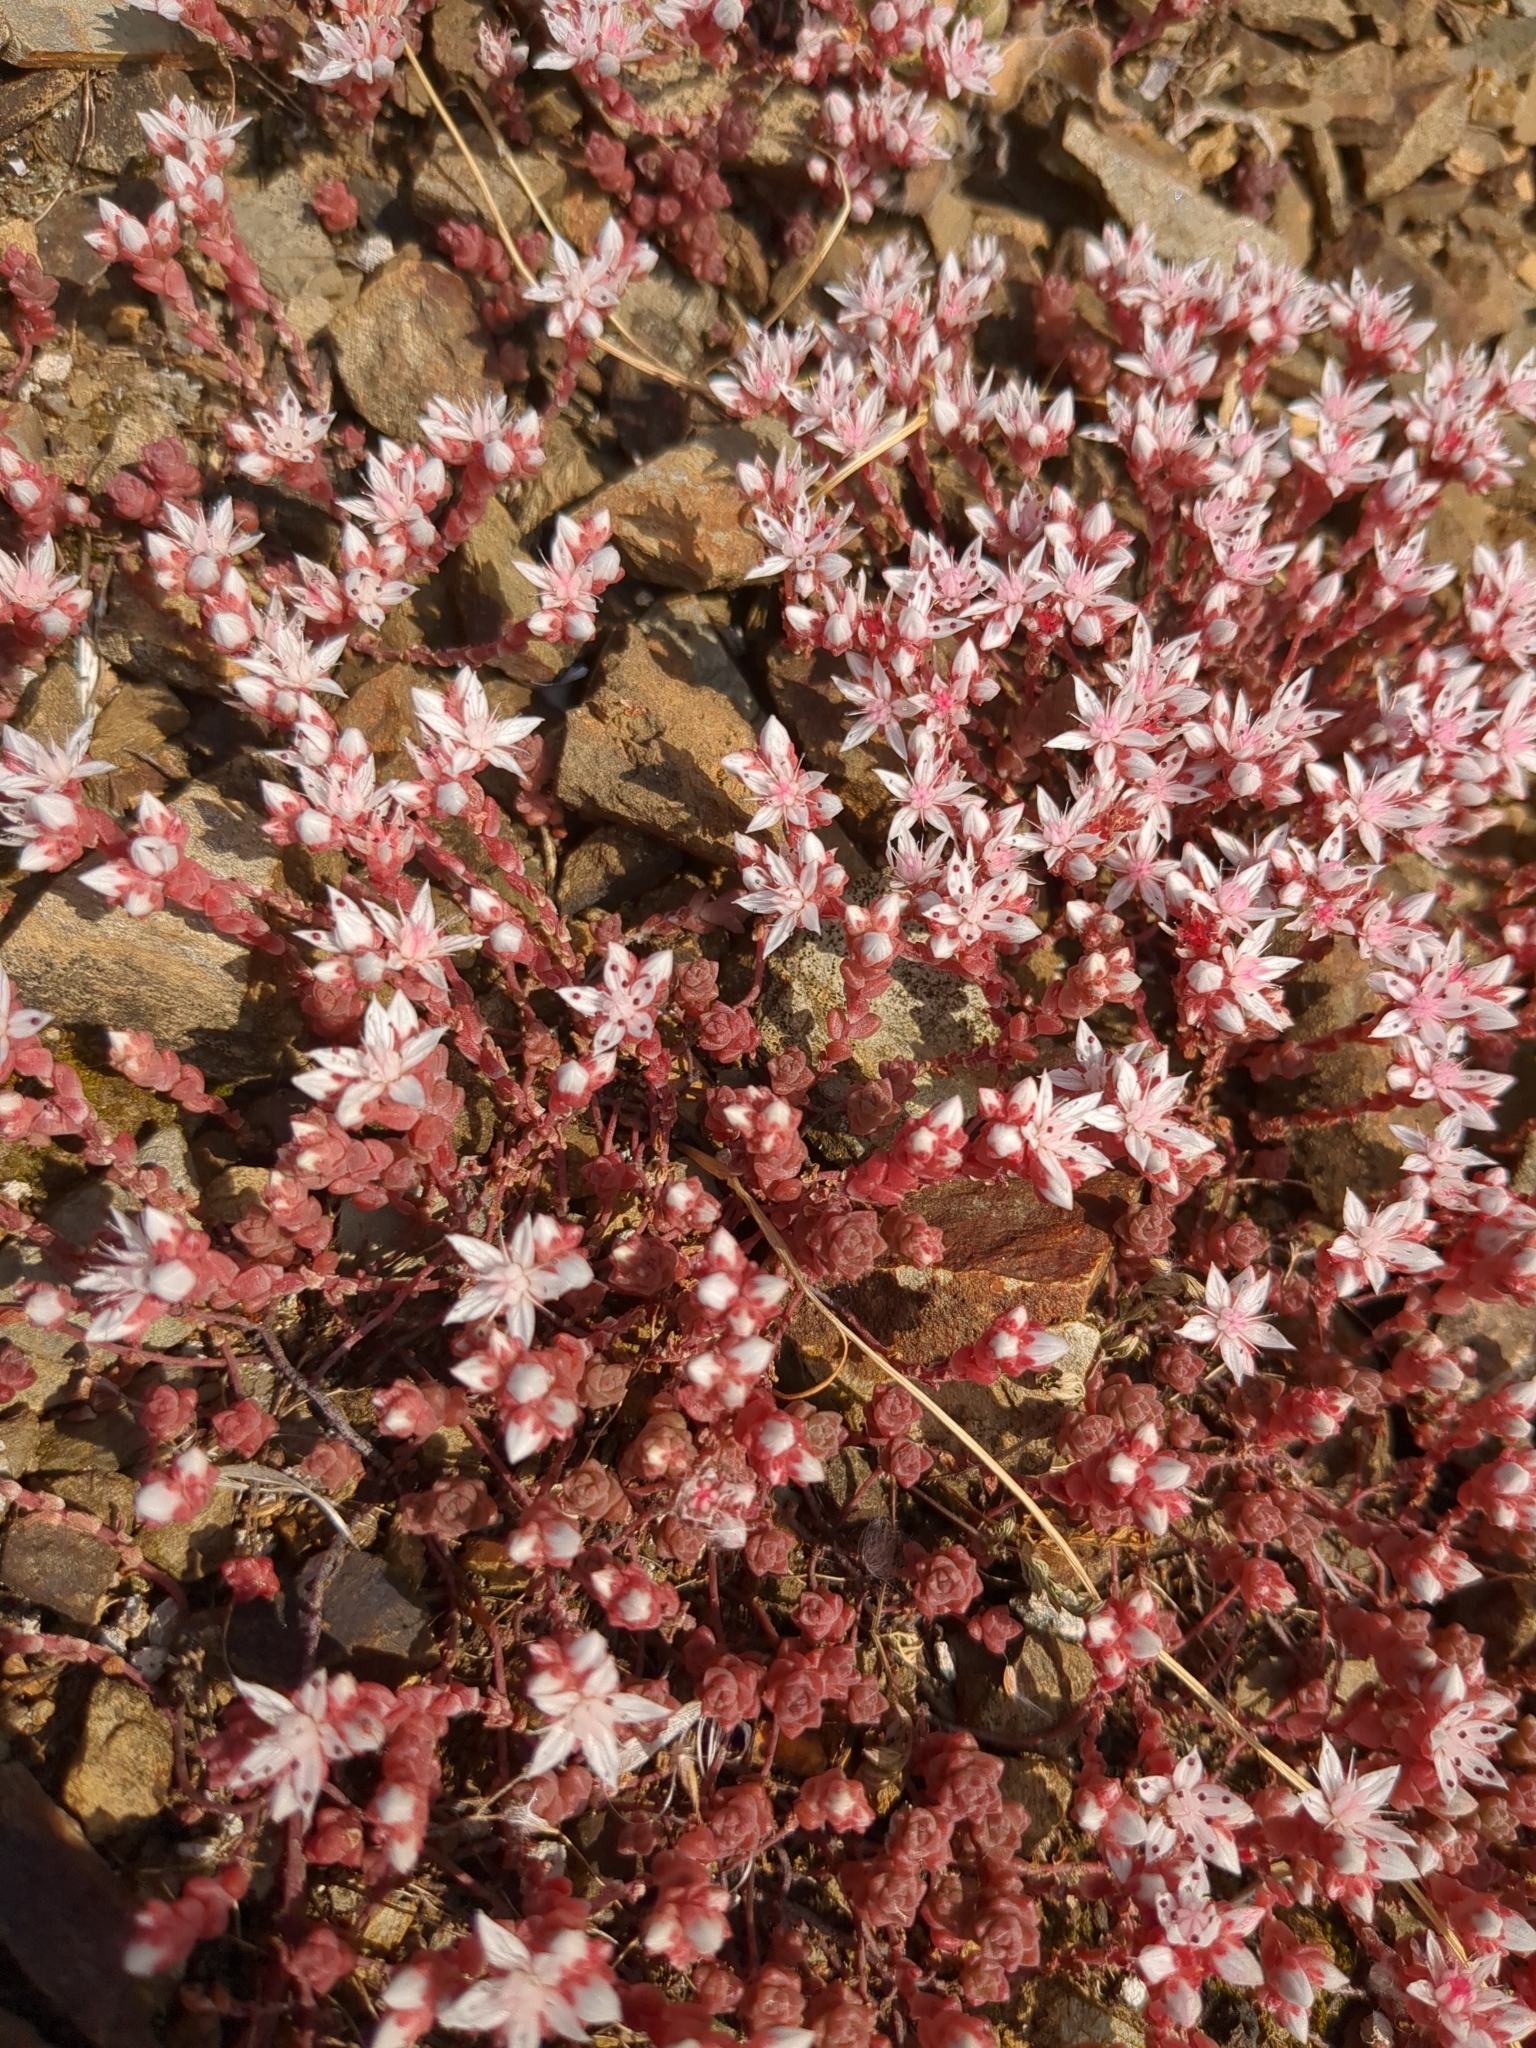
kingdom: Plantae
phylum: Tracheophyta
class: Magnoliopsida
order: Saxifragales
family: Crassulaceae
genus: Sedum
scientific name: Sedum anglicum
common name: English stonecrop
